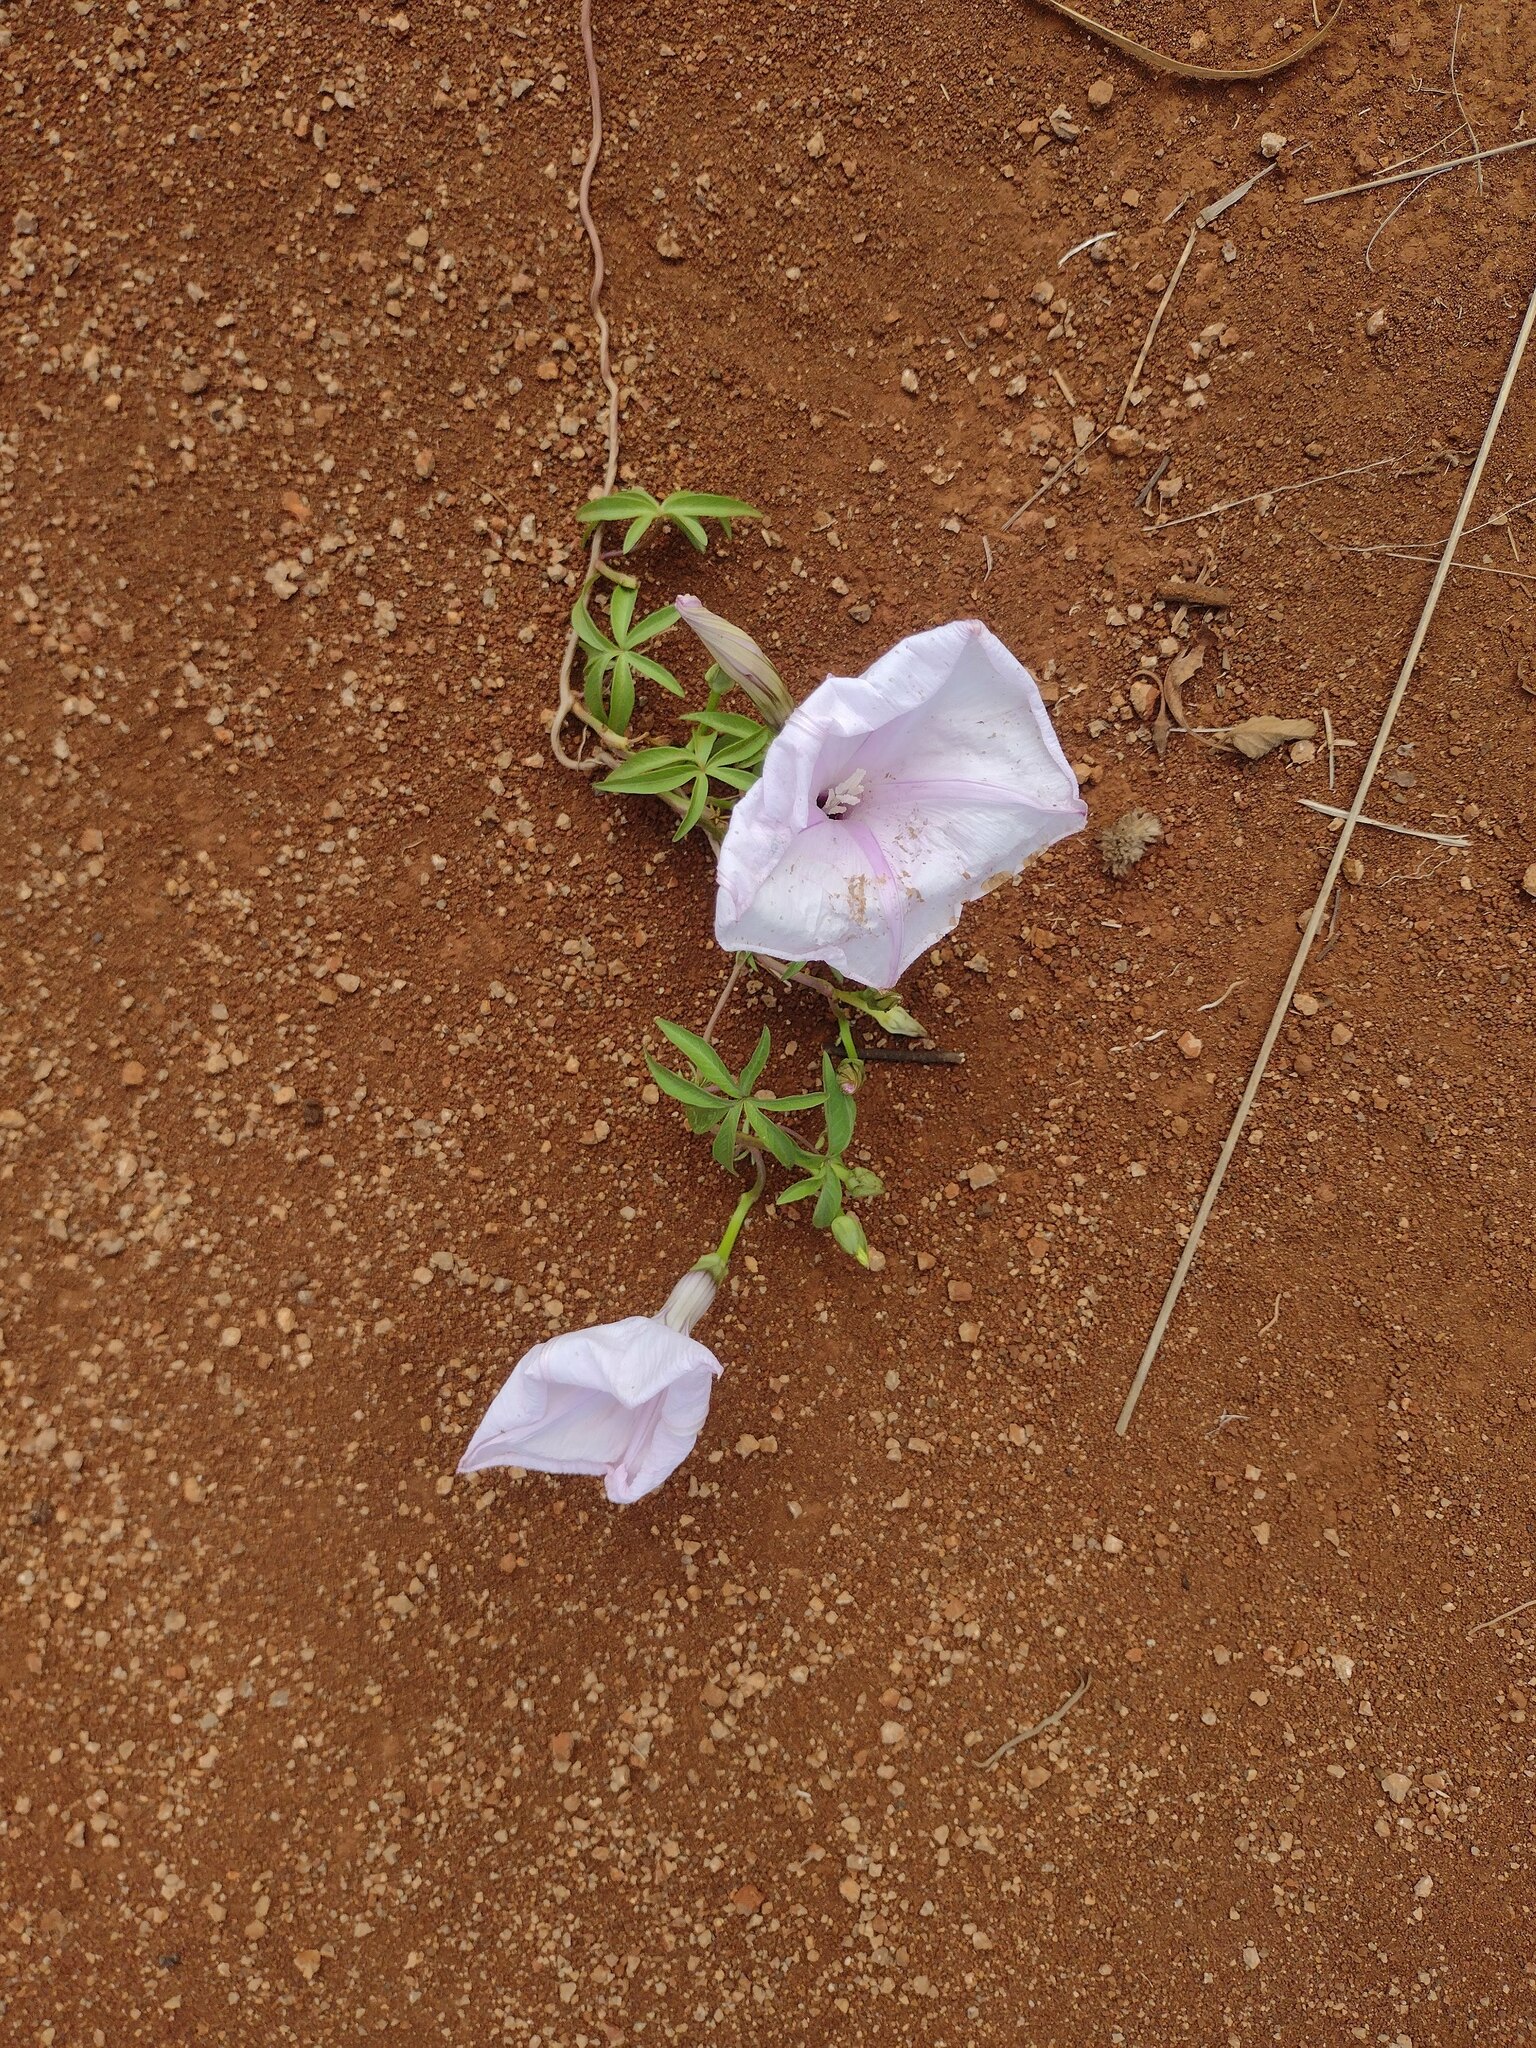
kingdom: Plantae
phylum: Tracheophyta
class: Magnoliopsida
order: Solanales
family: Convolvulaceae
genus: Ipomoea
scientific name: Ipomoea cairica
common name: Mile a minute vine
